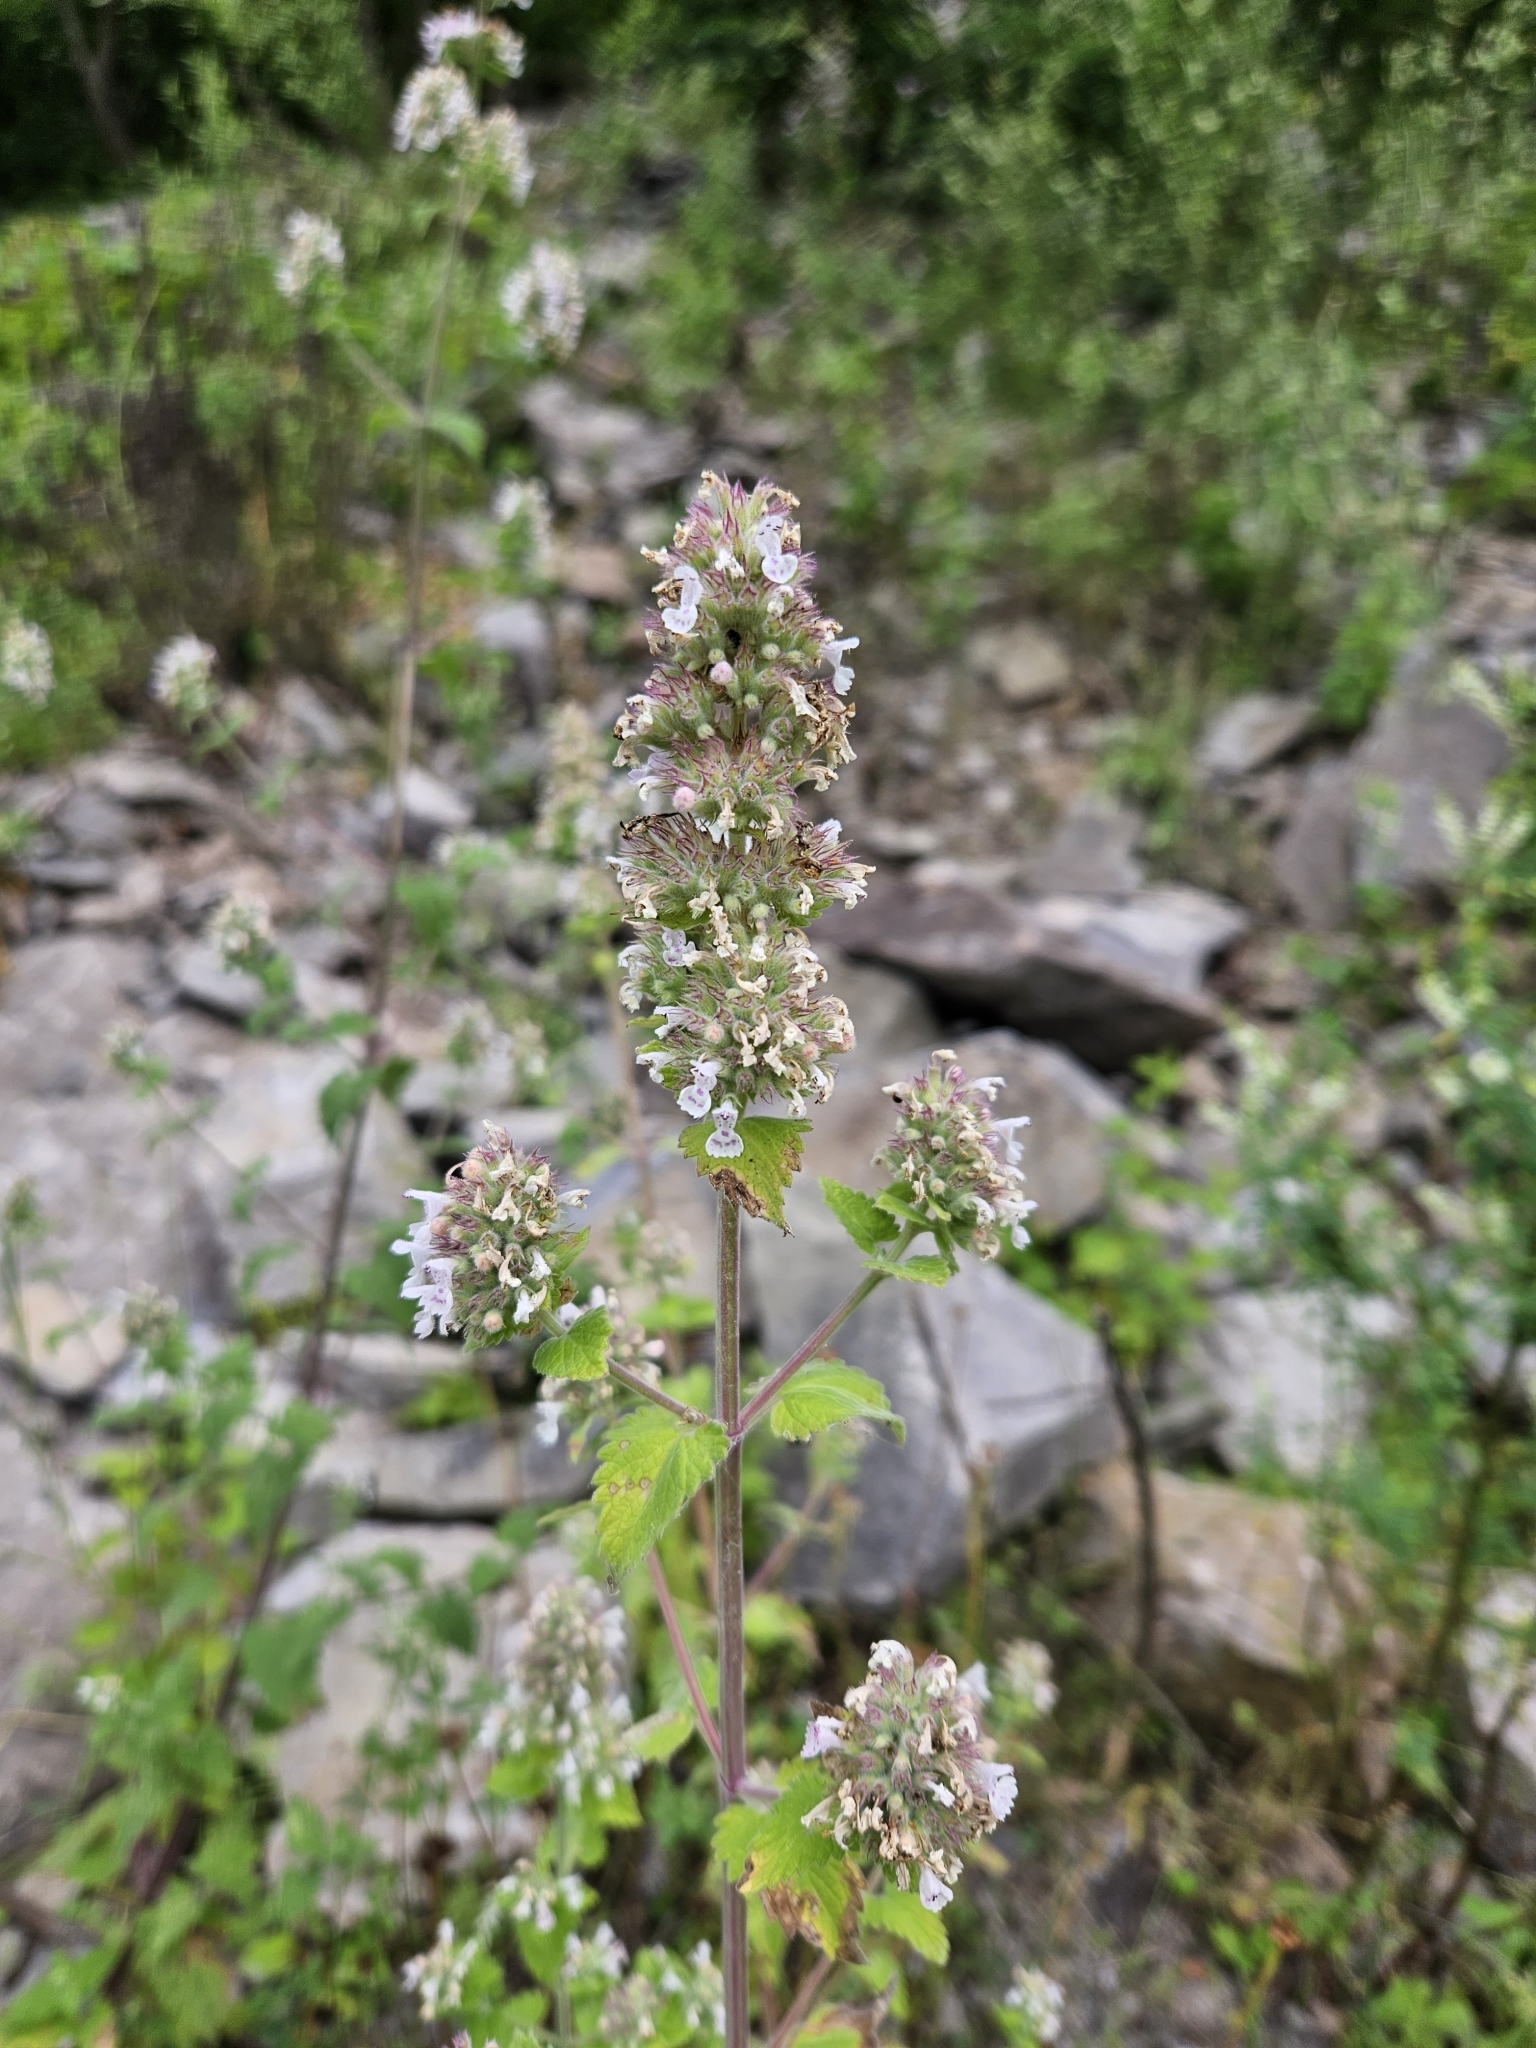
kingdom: Plantae
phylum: Tracheophyta
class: Magnoliopsida
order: Lamiales
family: Lamiaceae
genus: Nepeta
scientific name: Nepeta cataria
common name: Catnip
